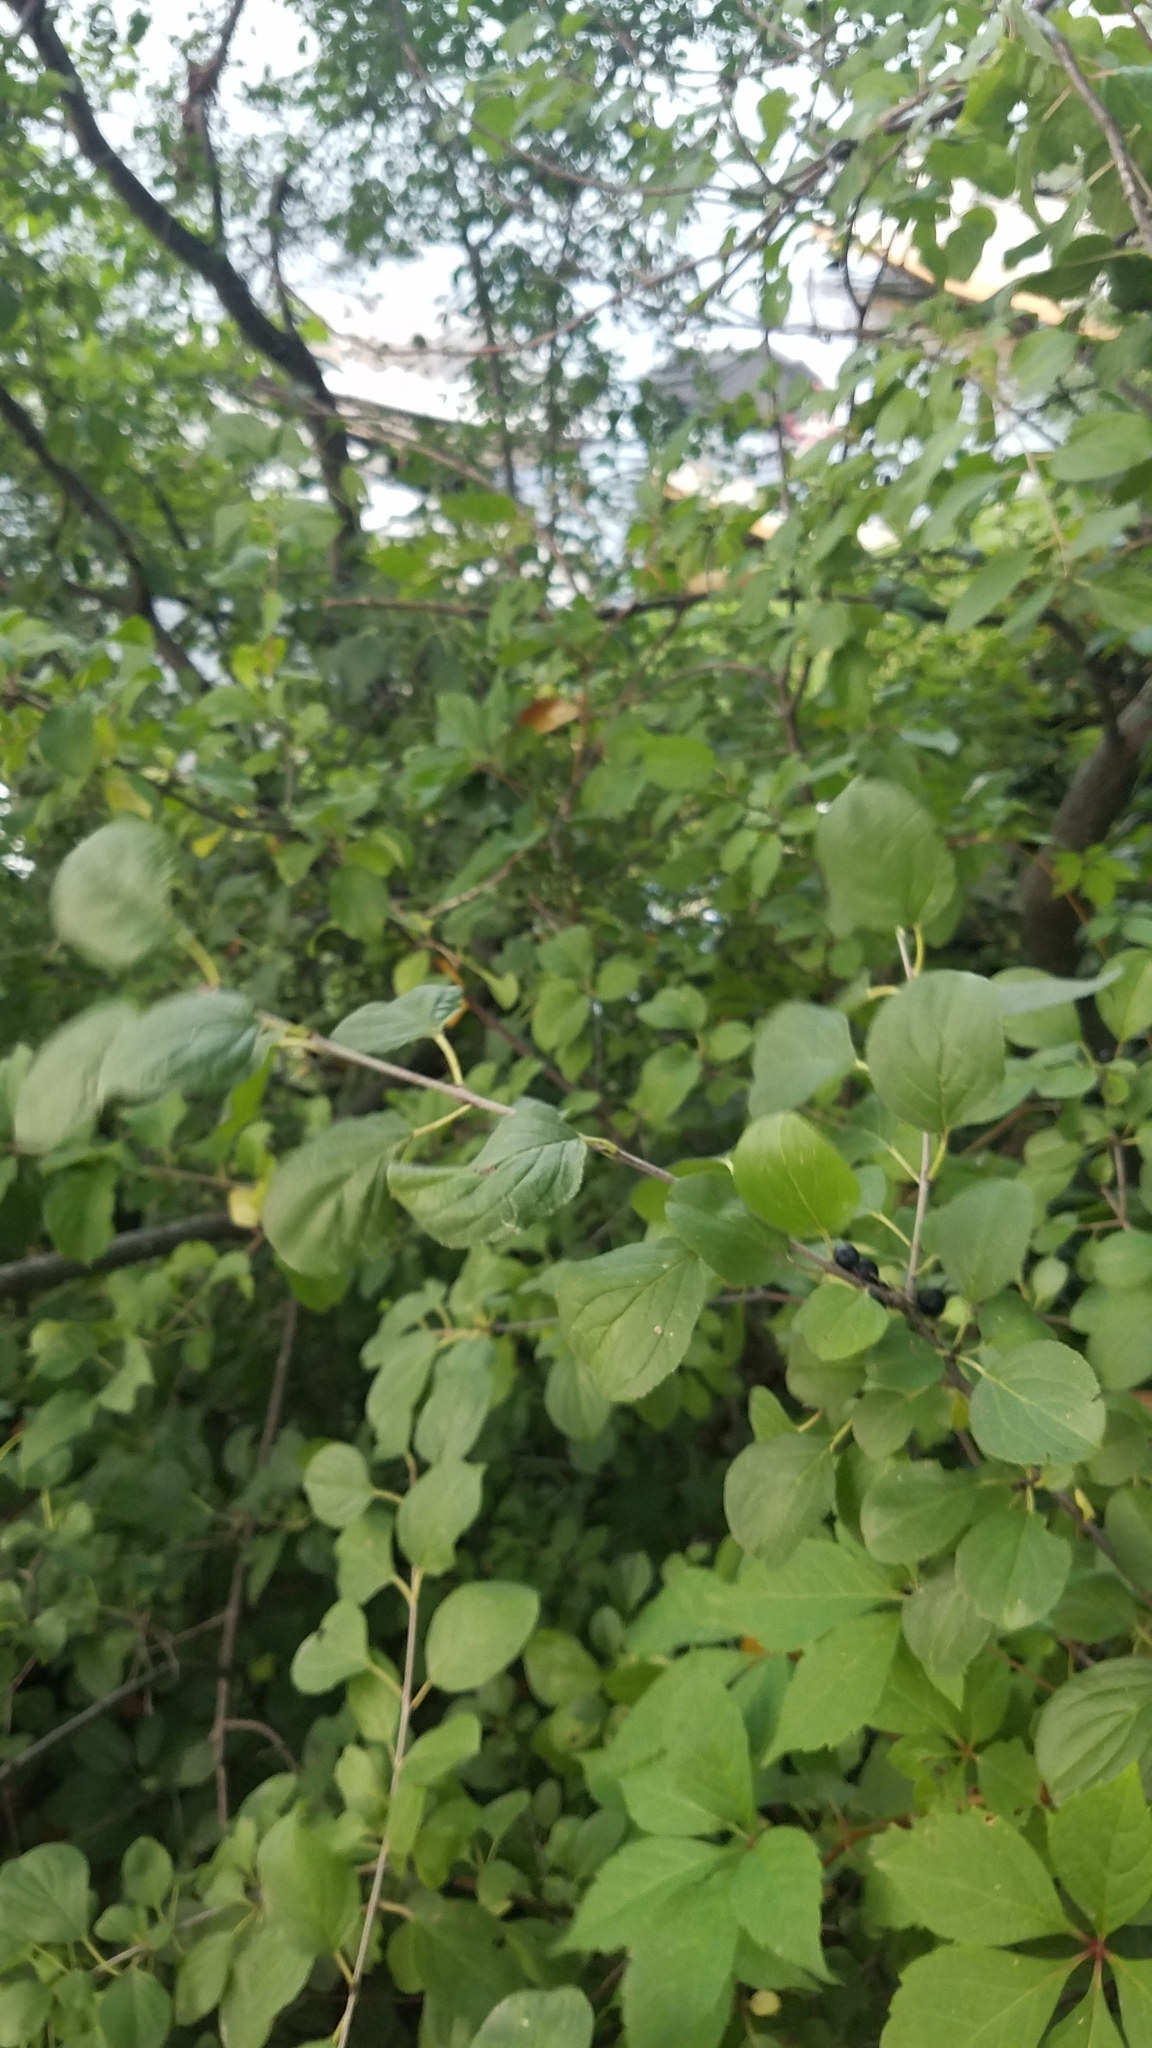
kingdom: Plantae
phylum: Tracheophyta
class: Magnoliopsida
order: Rosales
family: Rhamnaceae
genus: Rhamnus
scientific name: Rhamnus cathartica
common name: Common buckthorn
